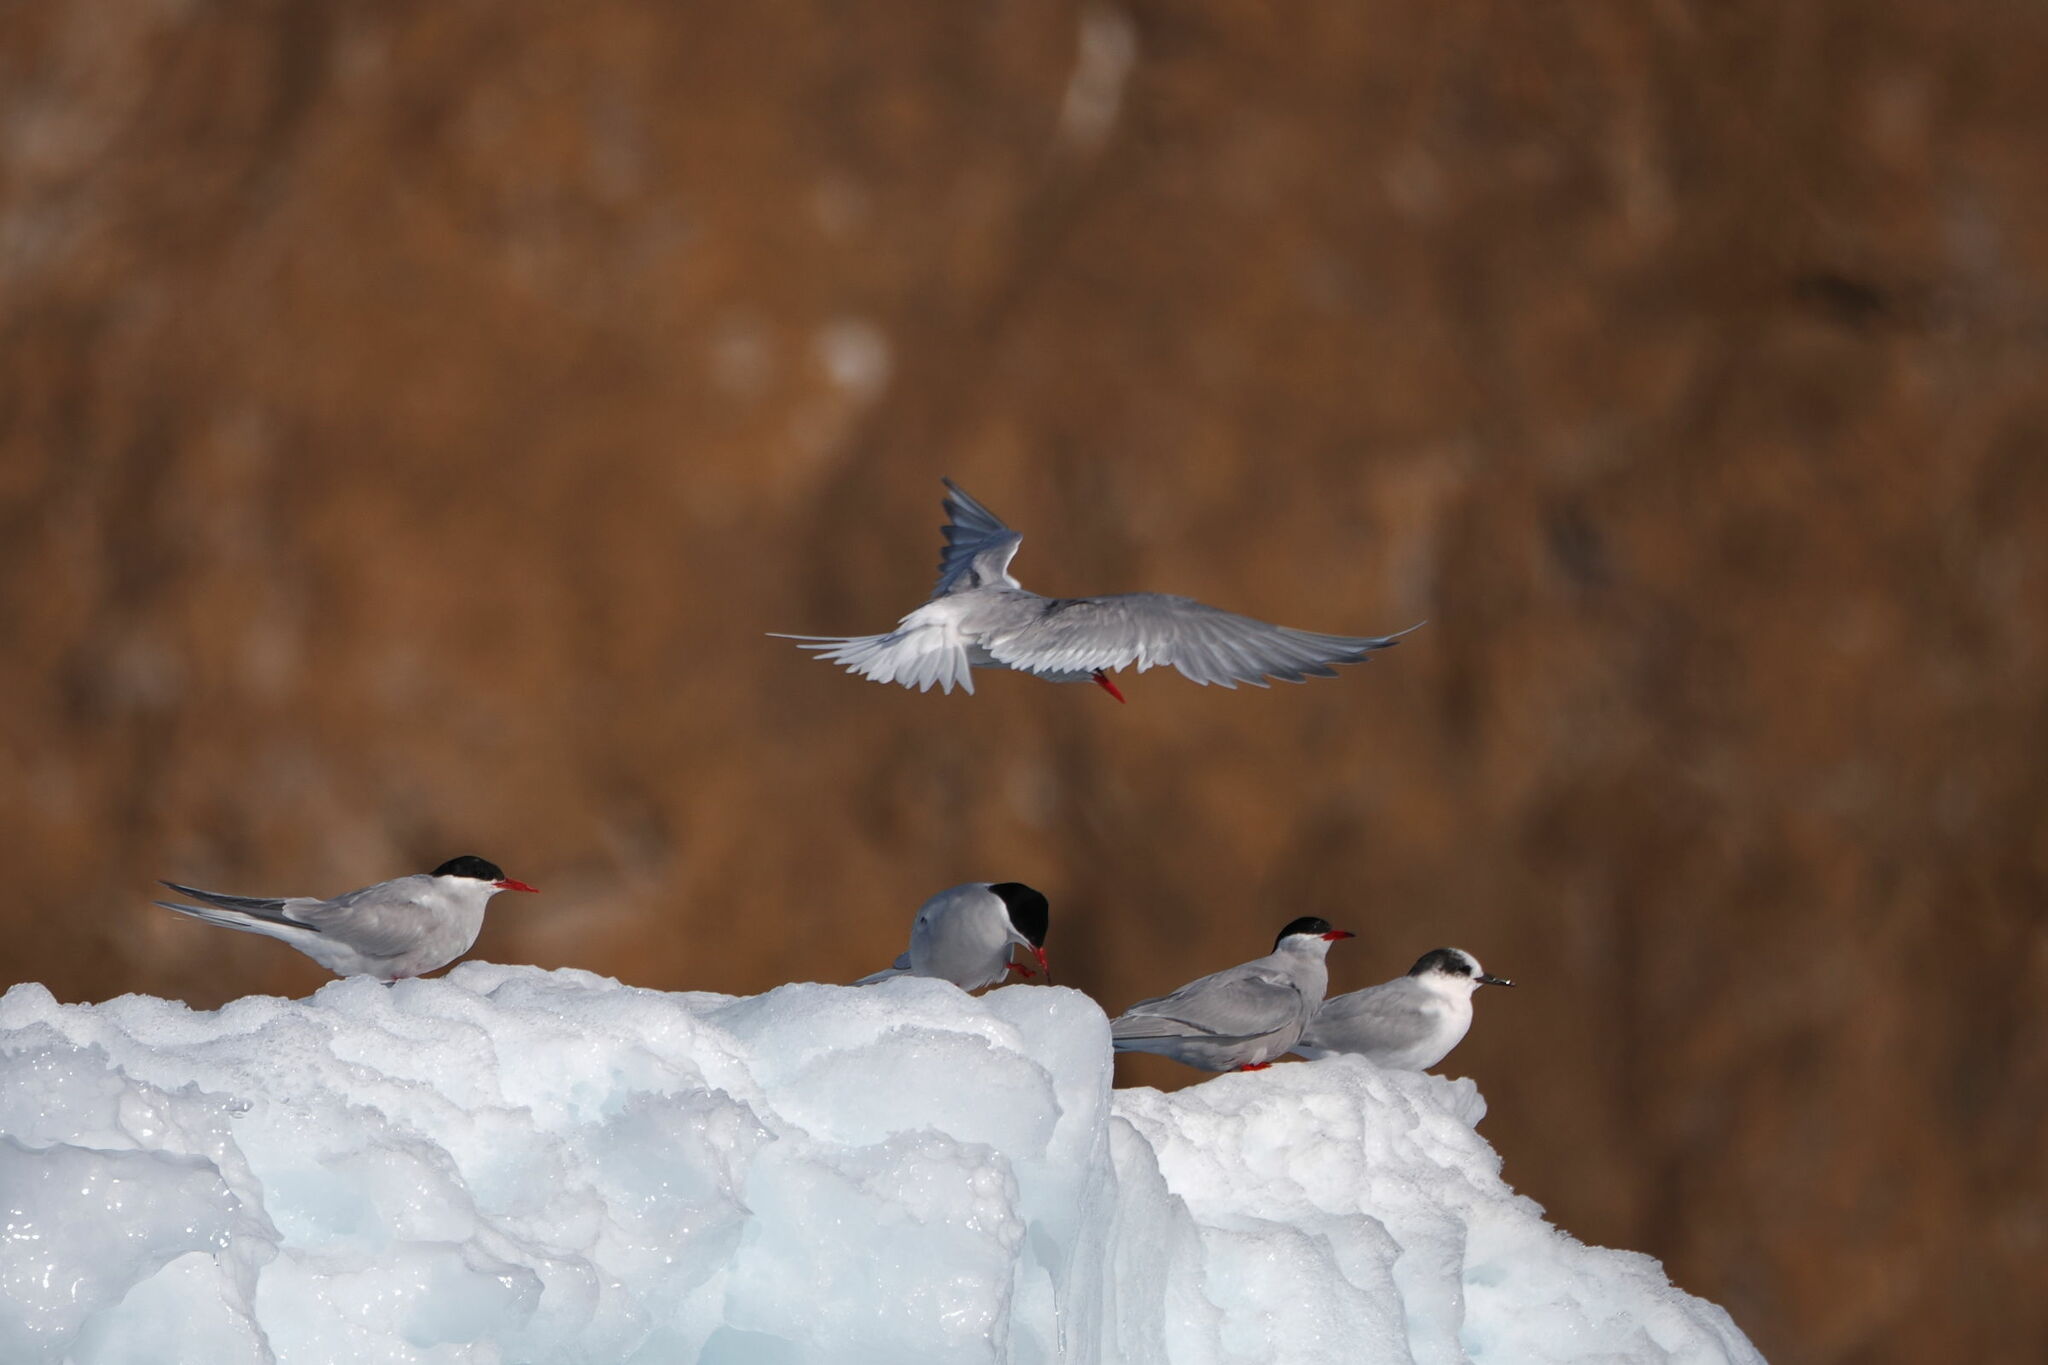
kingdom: Animalia
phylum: Chordata
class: Aves
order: Charadriiformes
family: Laridae
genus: Sterna
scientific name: Sterna vittata
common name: Antarctic tern
